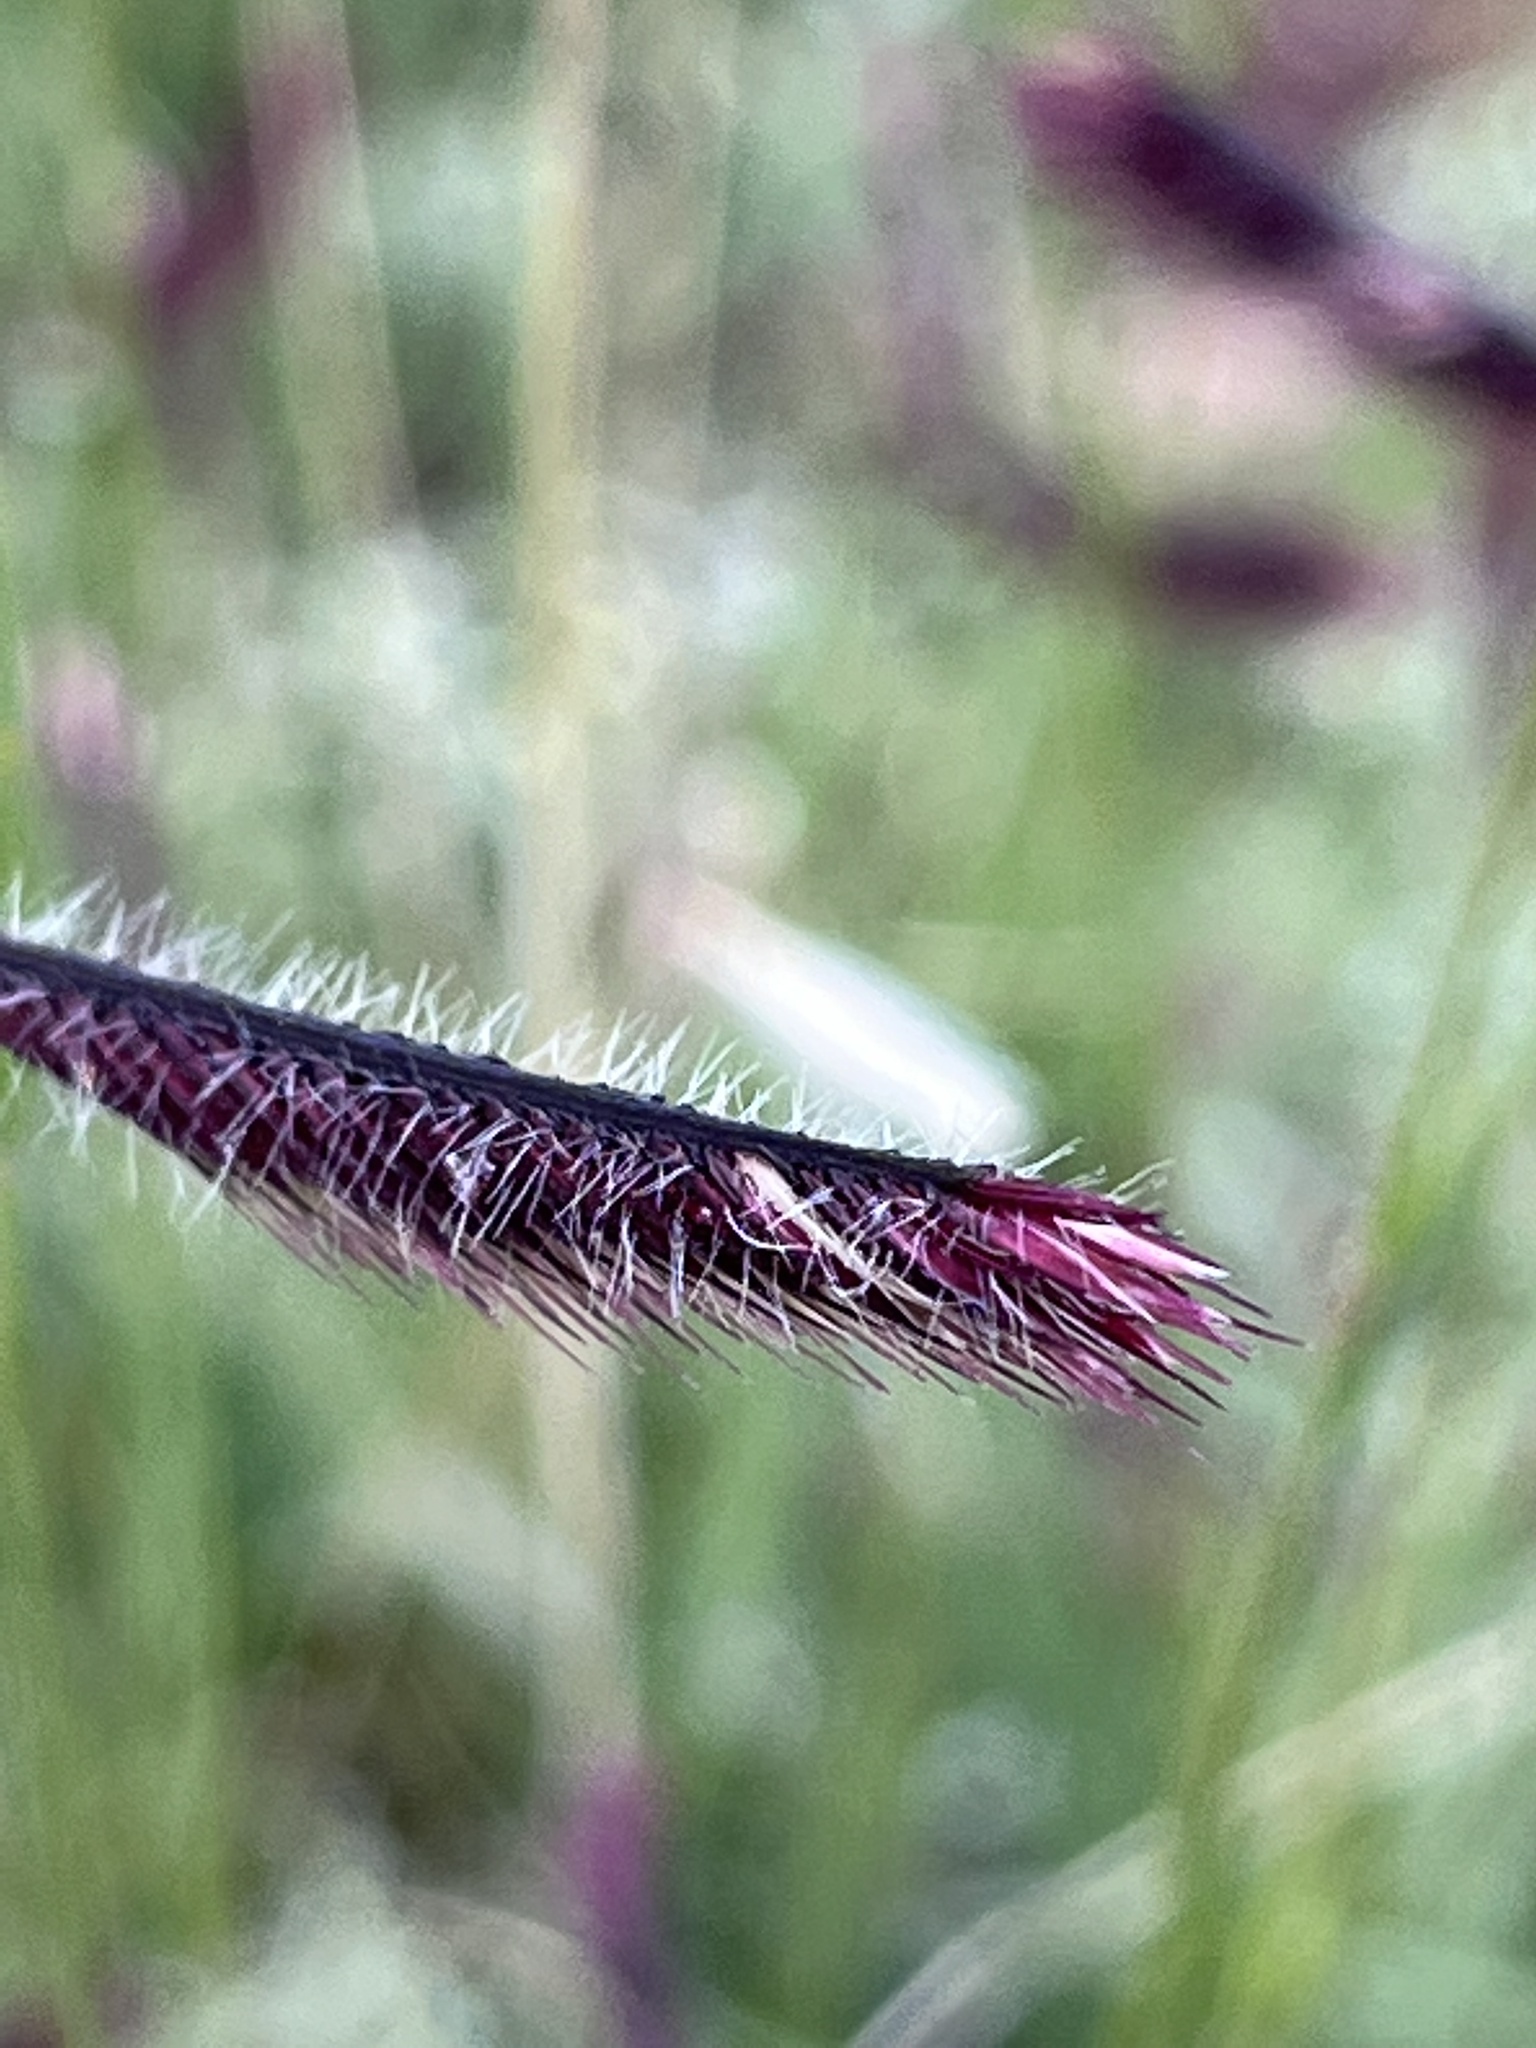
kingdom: Plantae
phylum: Tracheophyta
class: Liliopsida
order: Poales
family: Poaceae
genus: Bouteloua
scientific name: Bouteloua gracilis
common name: Blue grama
